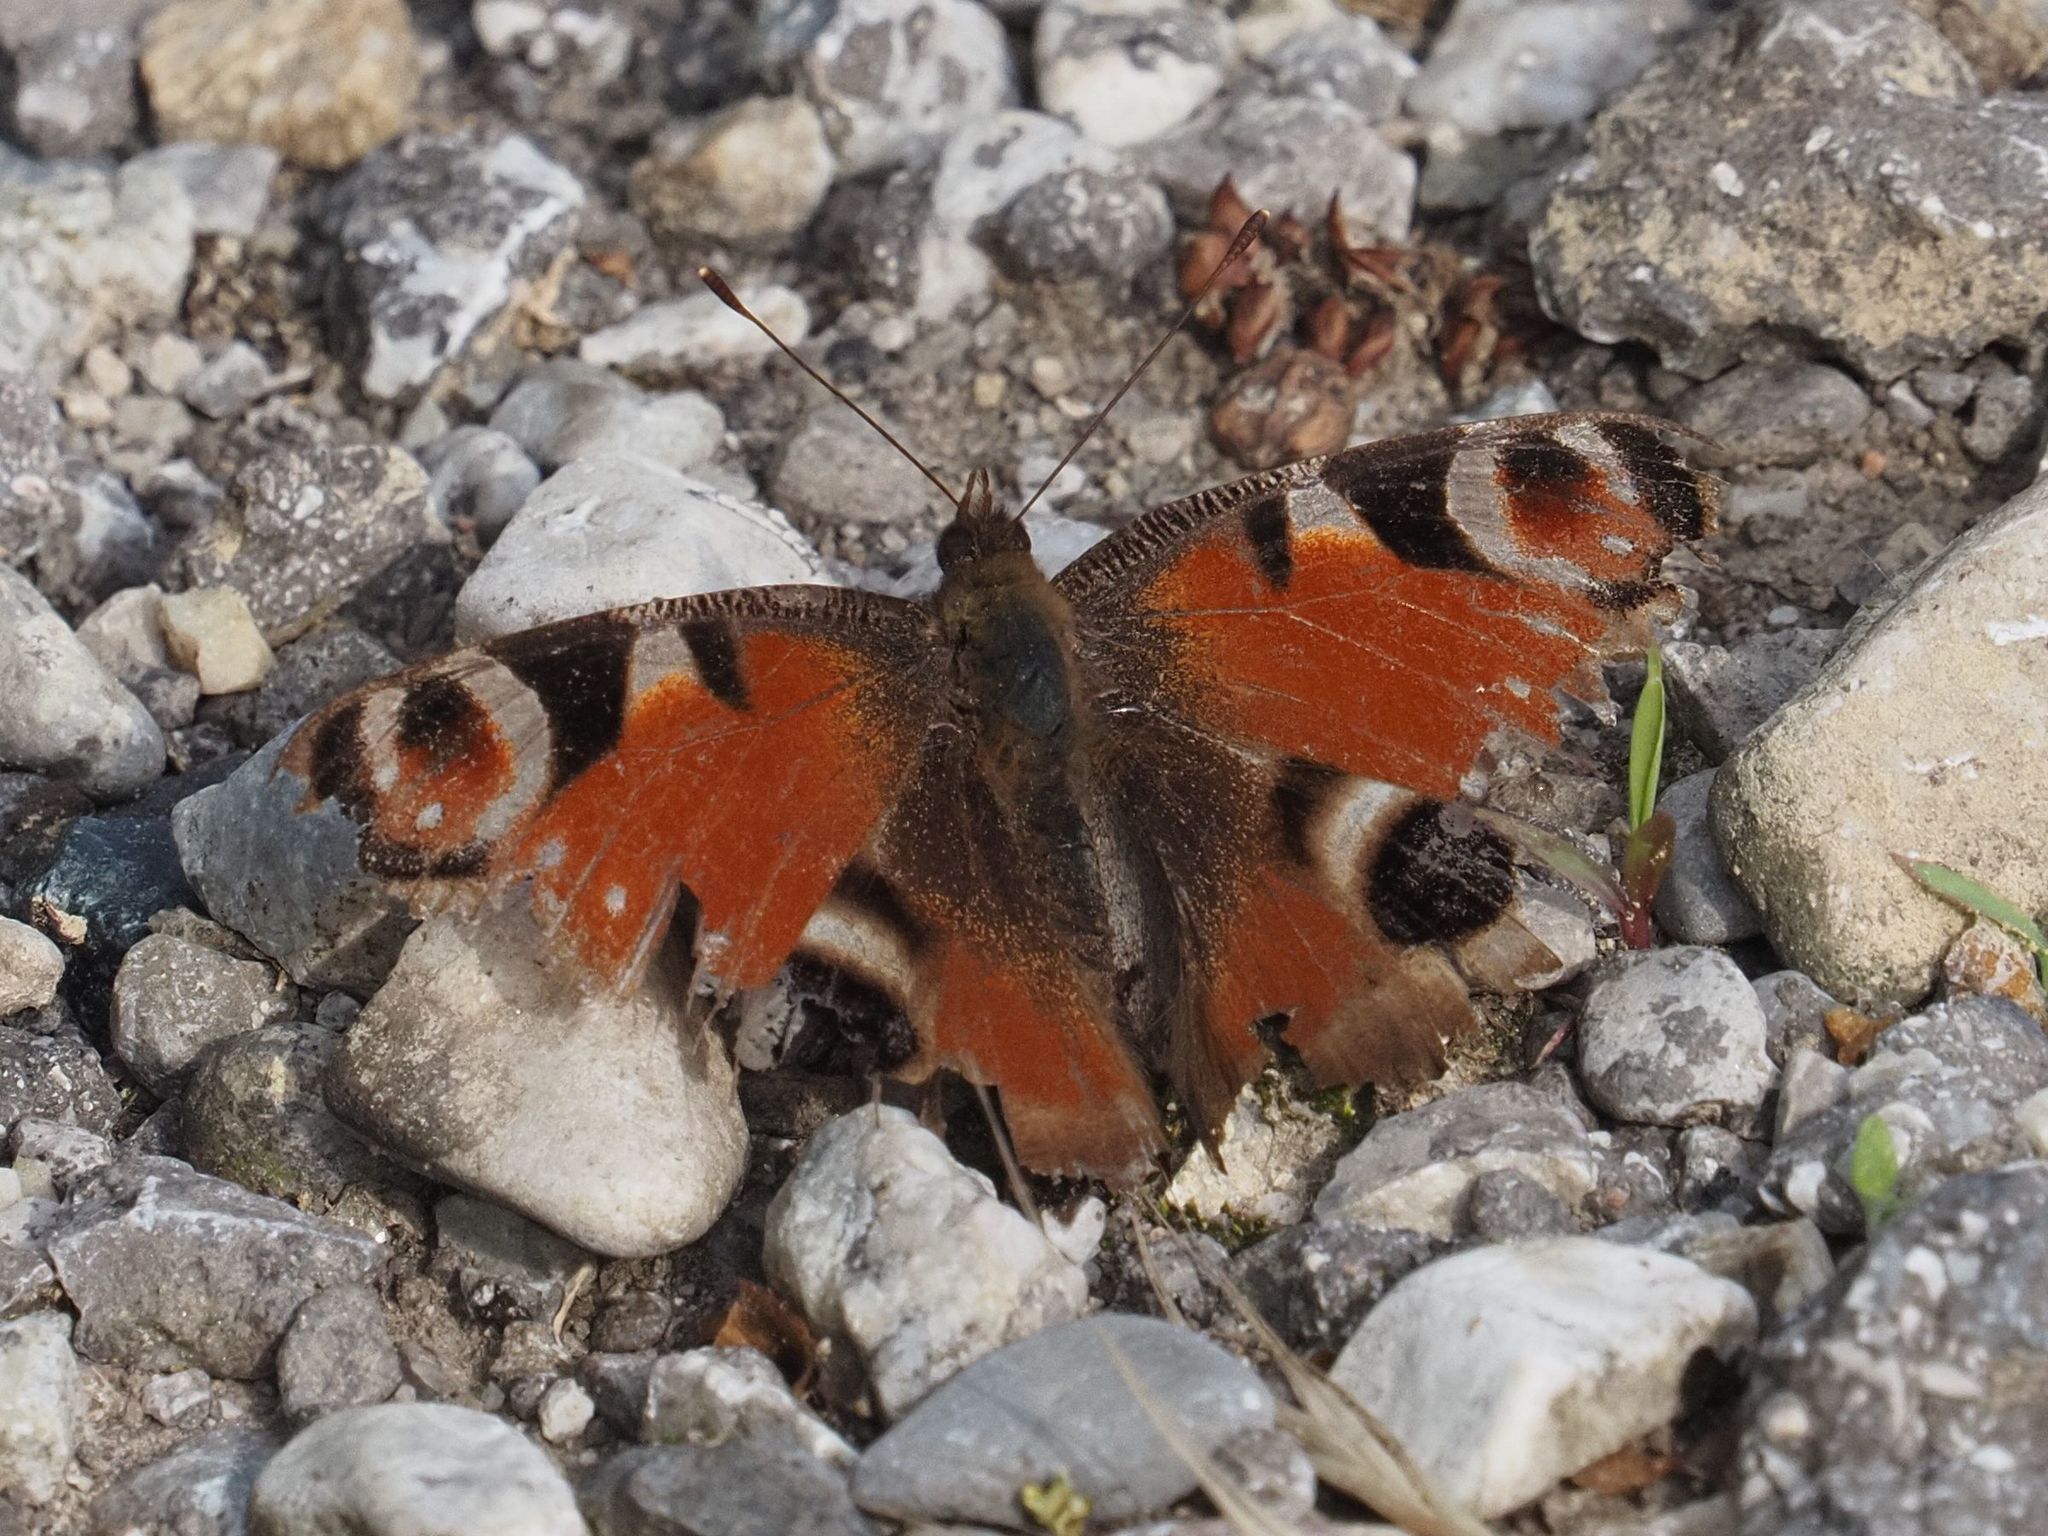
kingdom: Animalia
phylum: Arthropoda
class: Insecta
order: Lepidoptera
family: Nymphalidae
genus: Aglais
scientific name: Aglais io
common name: Peacock
